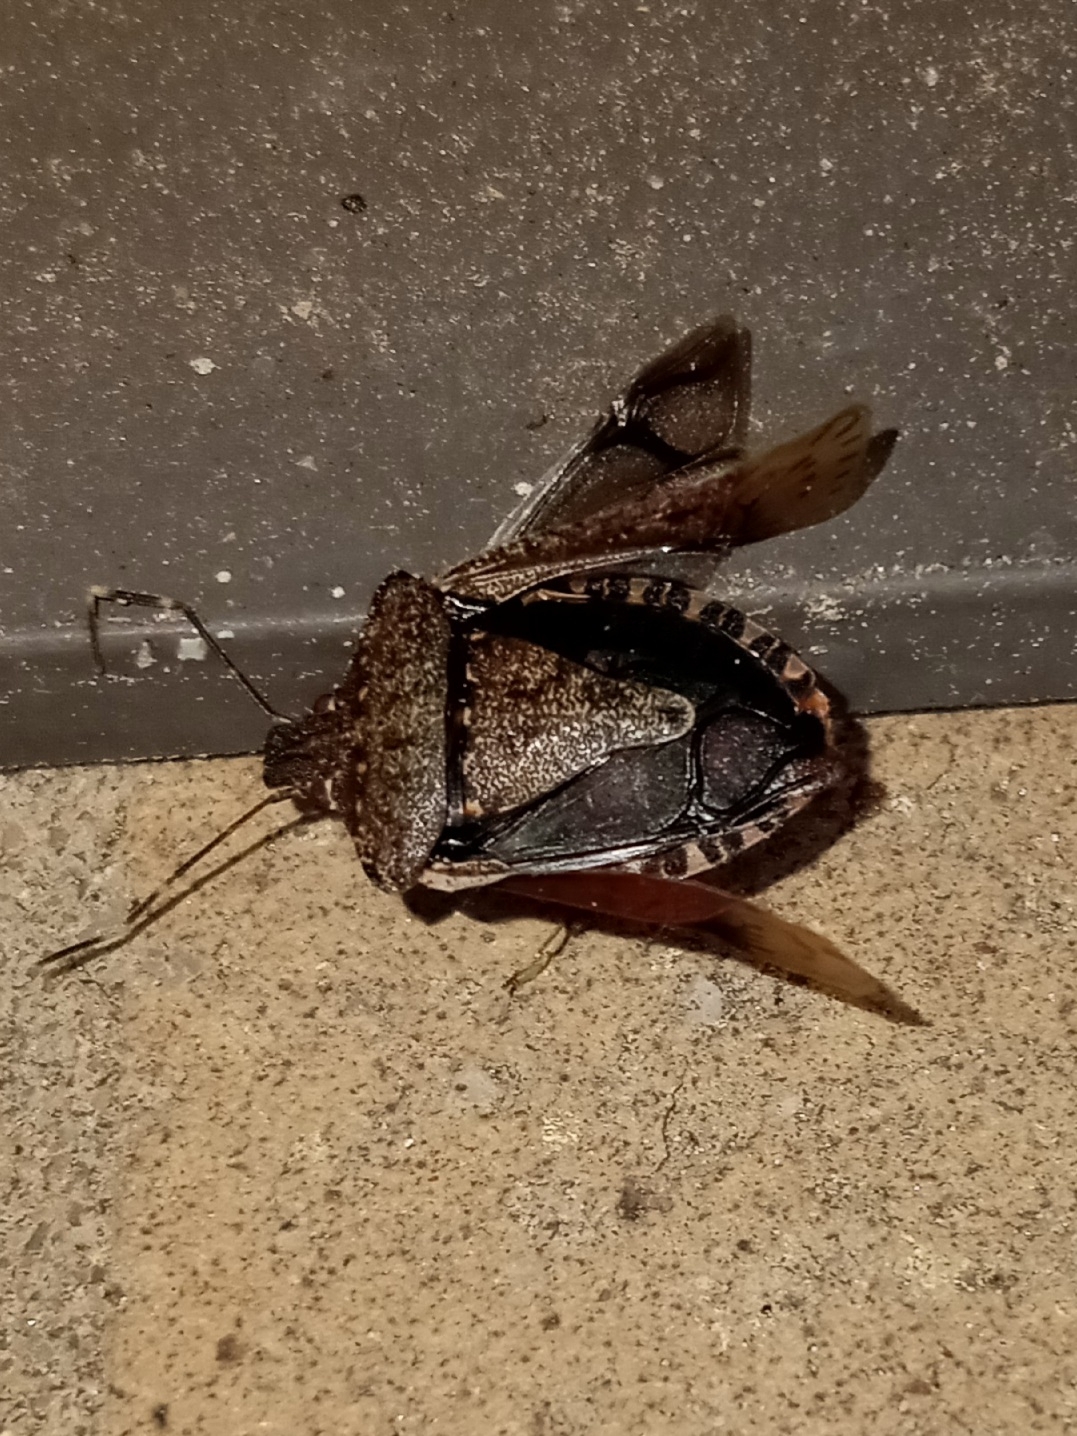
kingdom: Animalia
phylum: Arthropoda
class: Insecta
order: Hemiptera
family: Pentatomidae
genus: Halyomorpha
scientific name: Halyomorpha halys
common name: Brown marmorated stink bug
